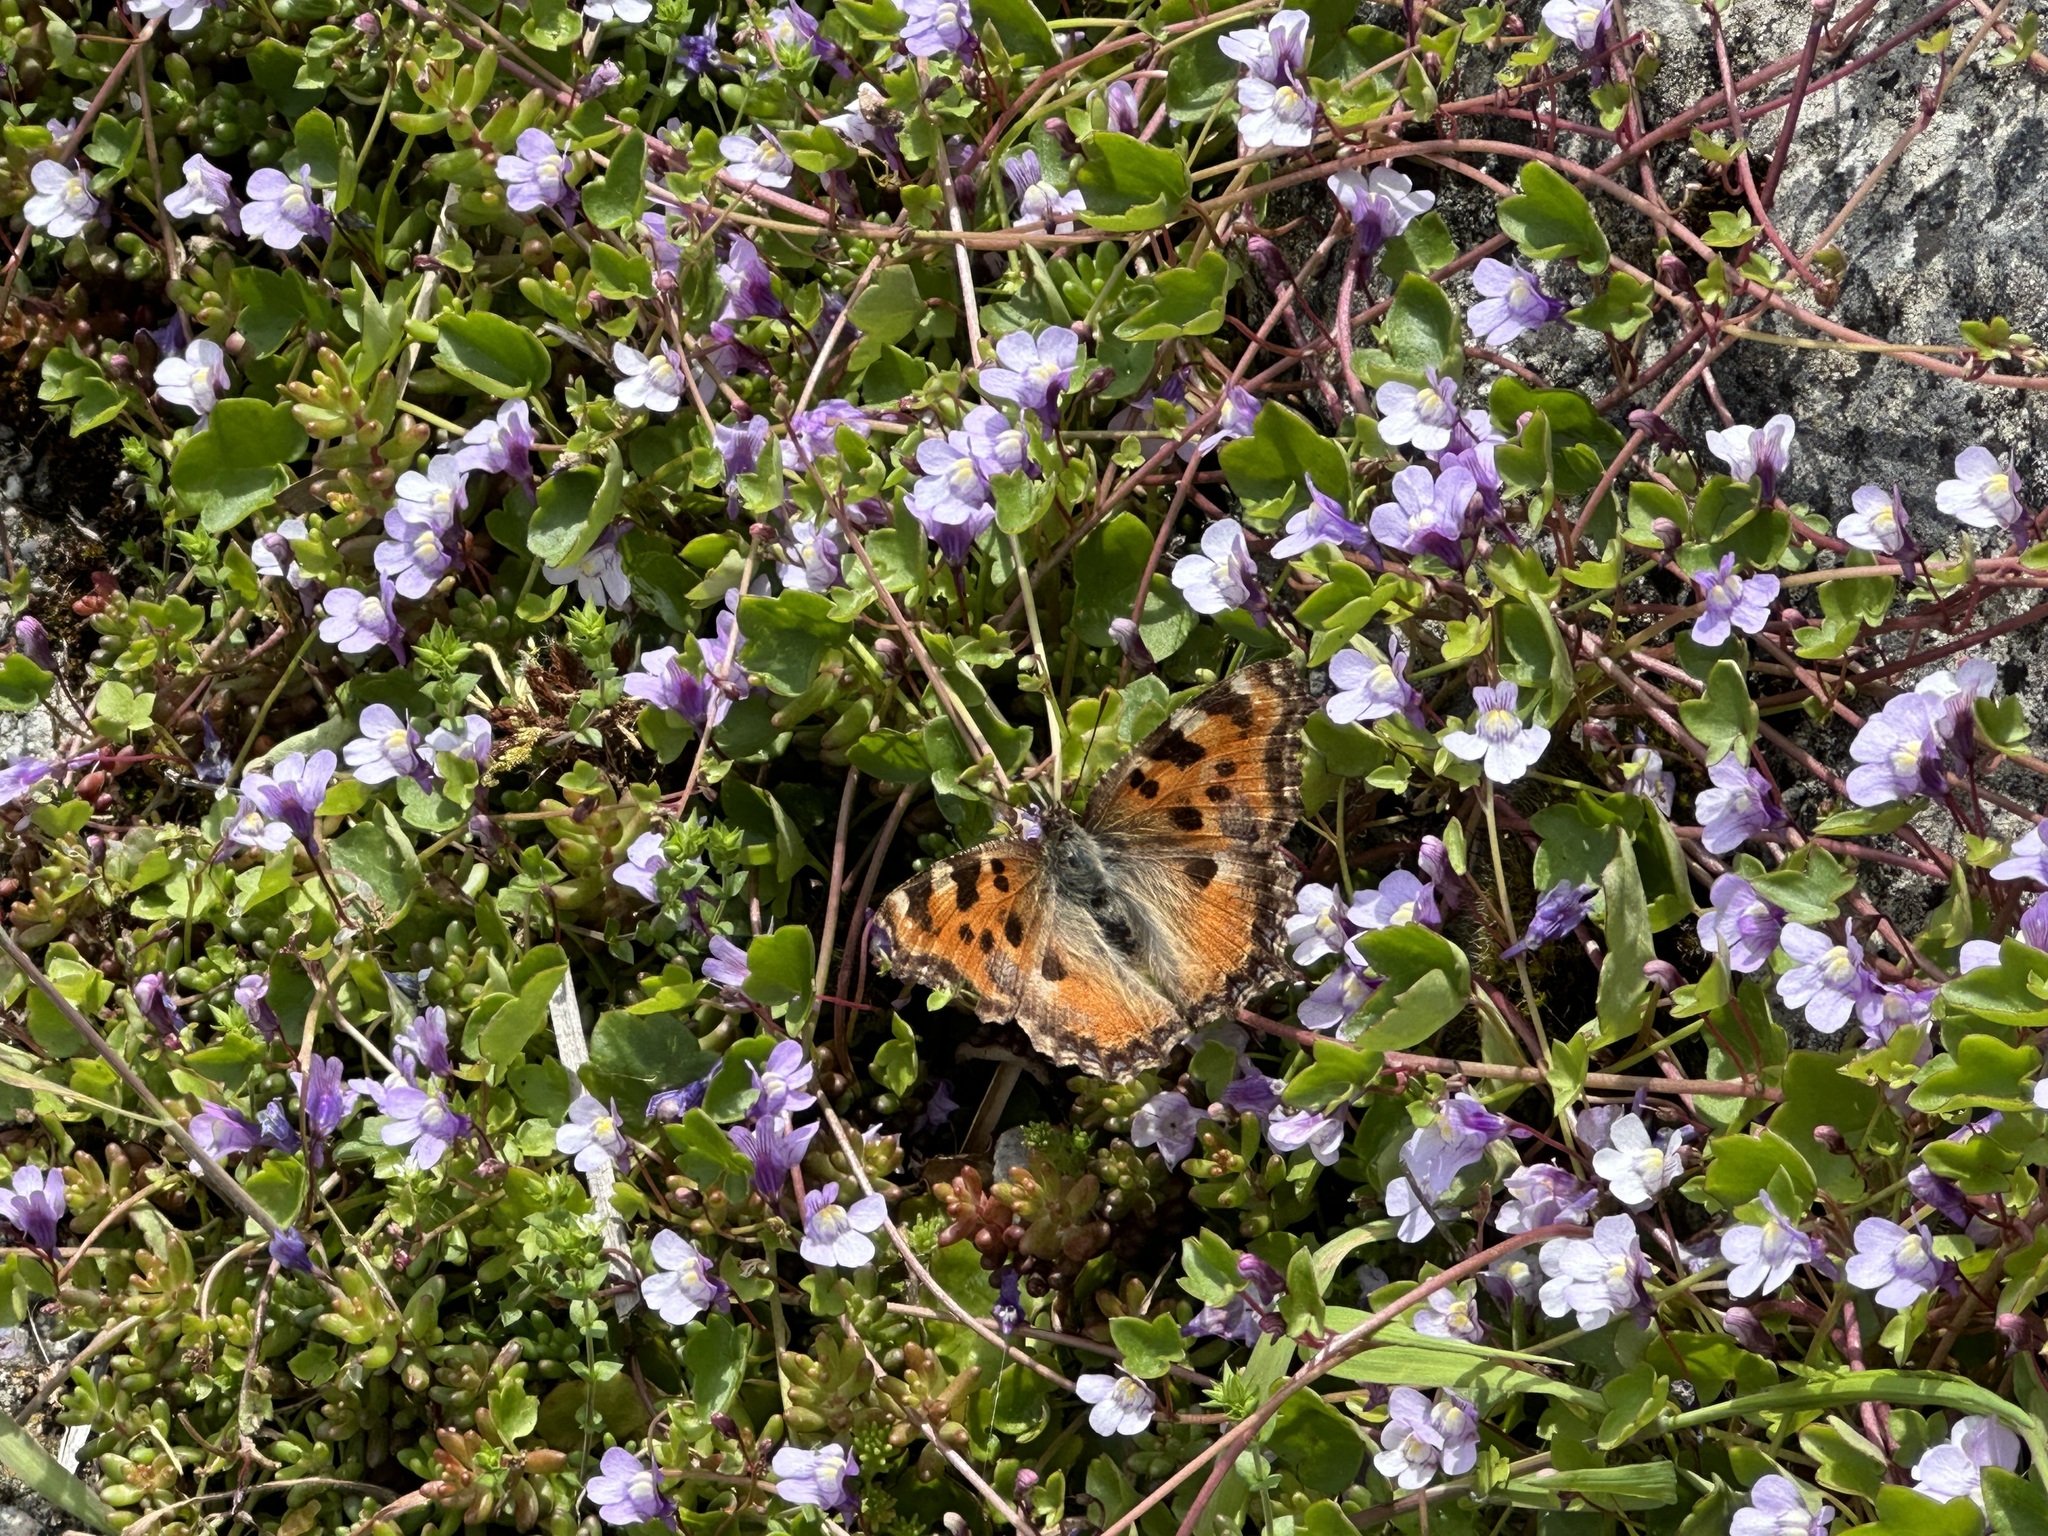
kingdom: Animalia
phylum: Arthropoda
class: Insecta
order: Lepidoptera
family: Nymphalidae
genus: Nymphalis
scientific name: Nymphalis polychloros
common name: Large tortoiseshell
